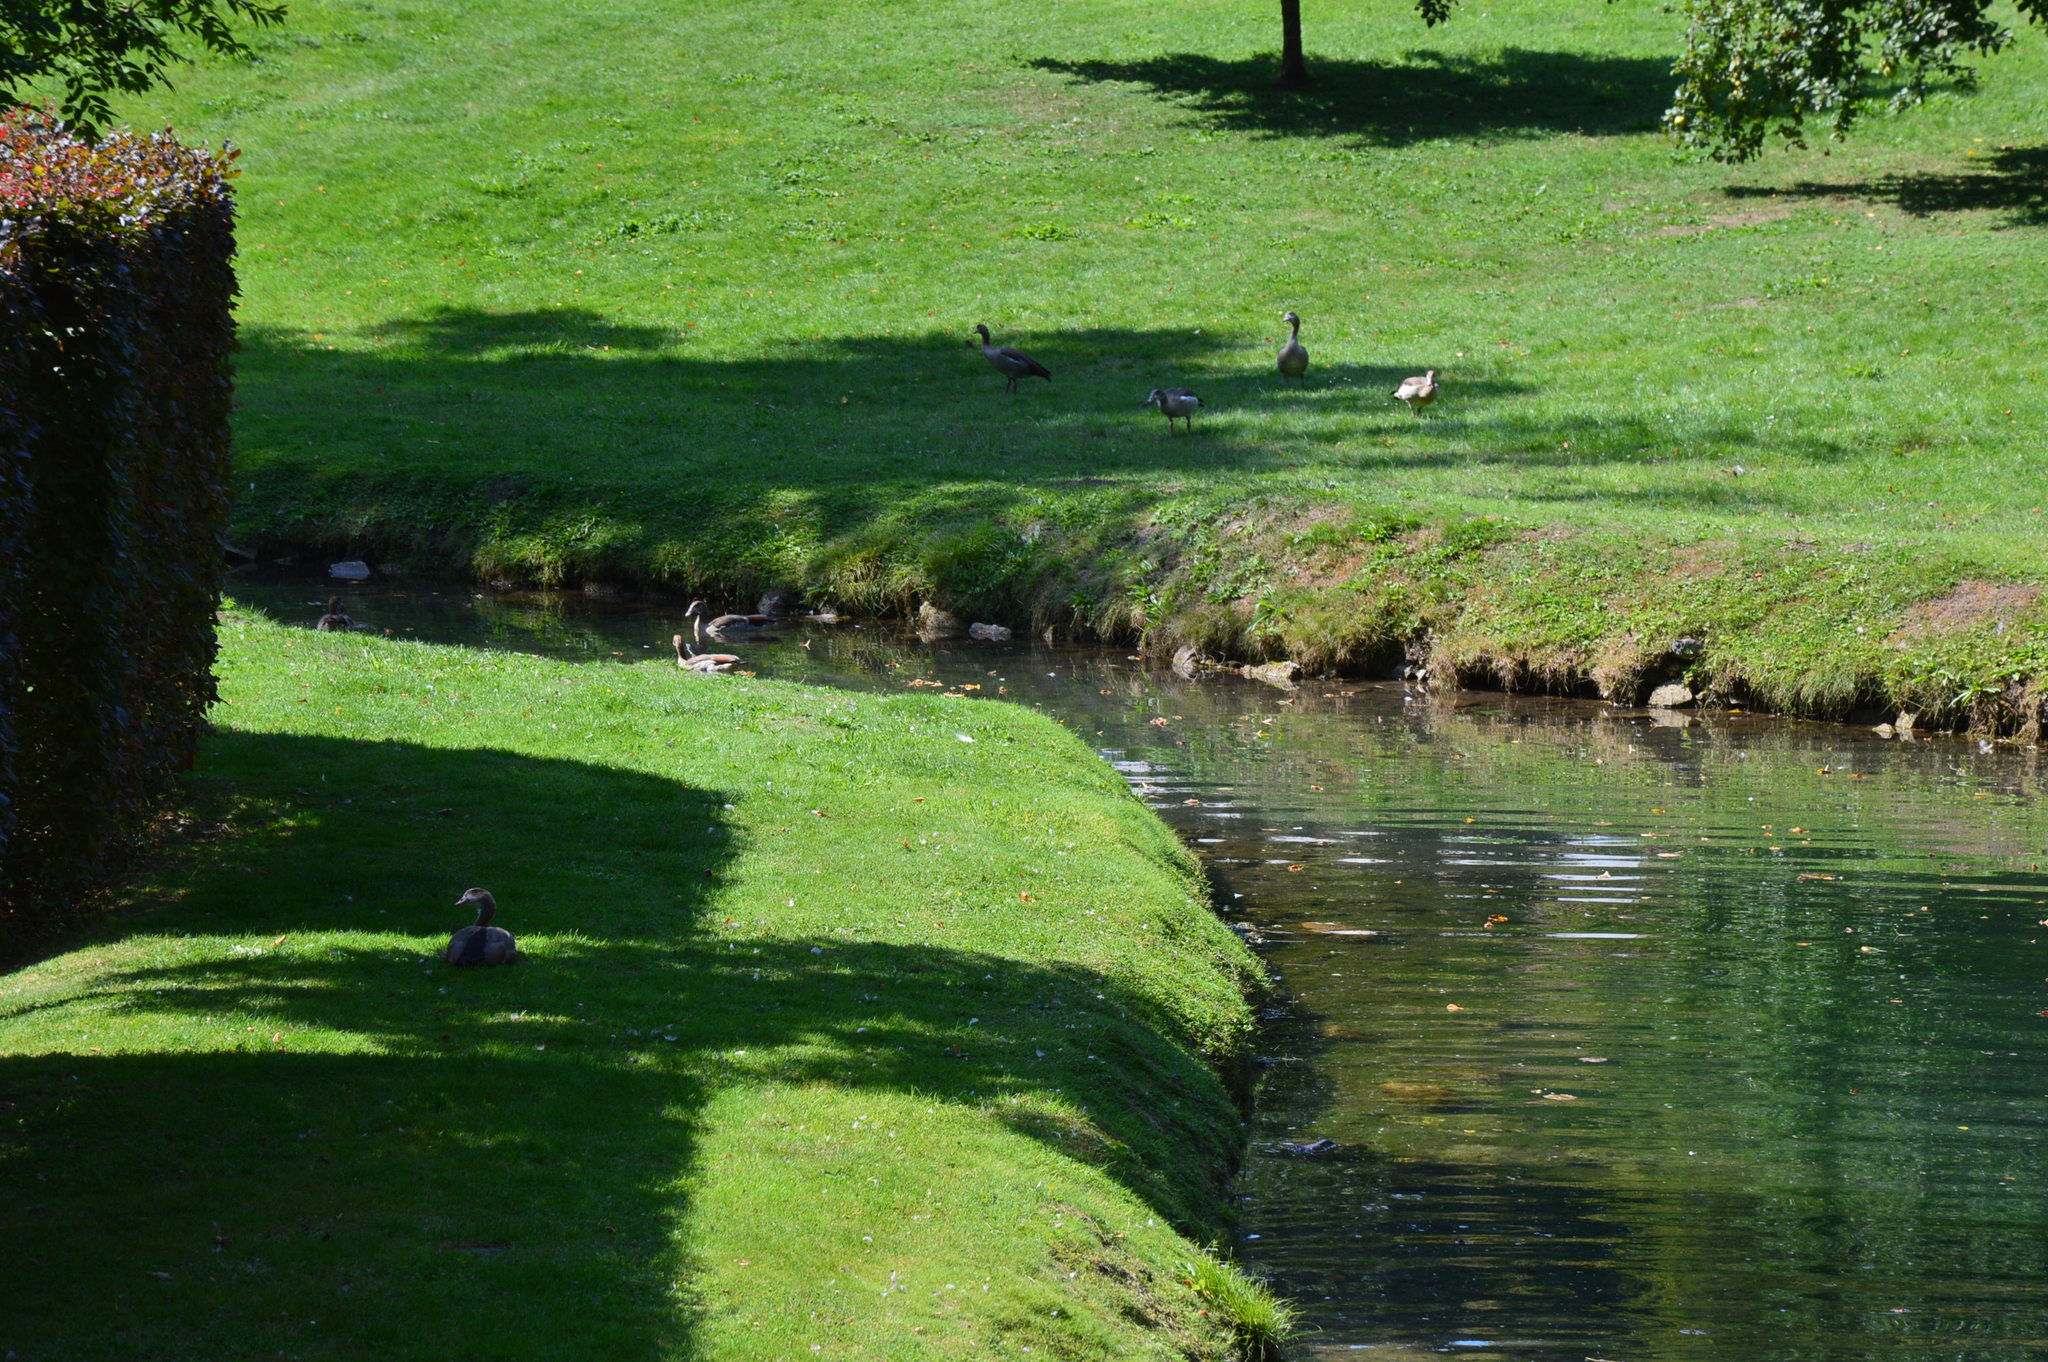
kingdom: Animalia
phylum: Chordata
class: Aves
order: Anseriformes
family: Anatidae
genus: Alopochen
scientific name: Alopochen aegyptiaca
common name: Egyptian goose
